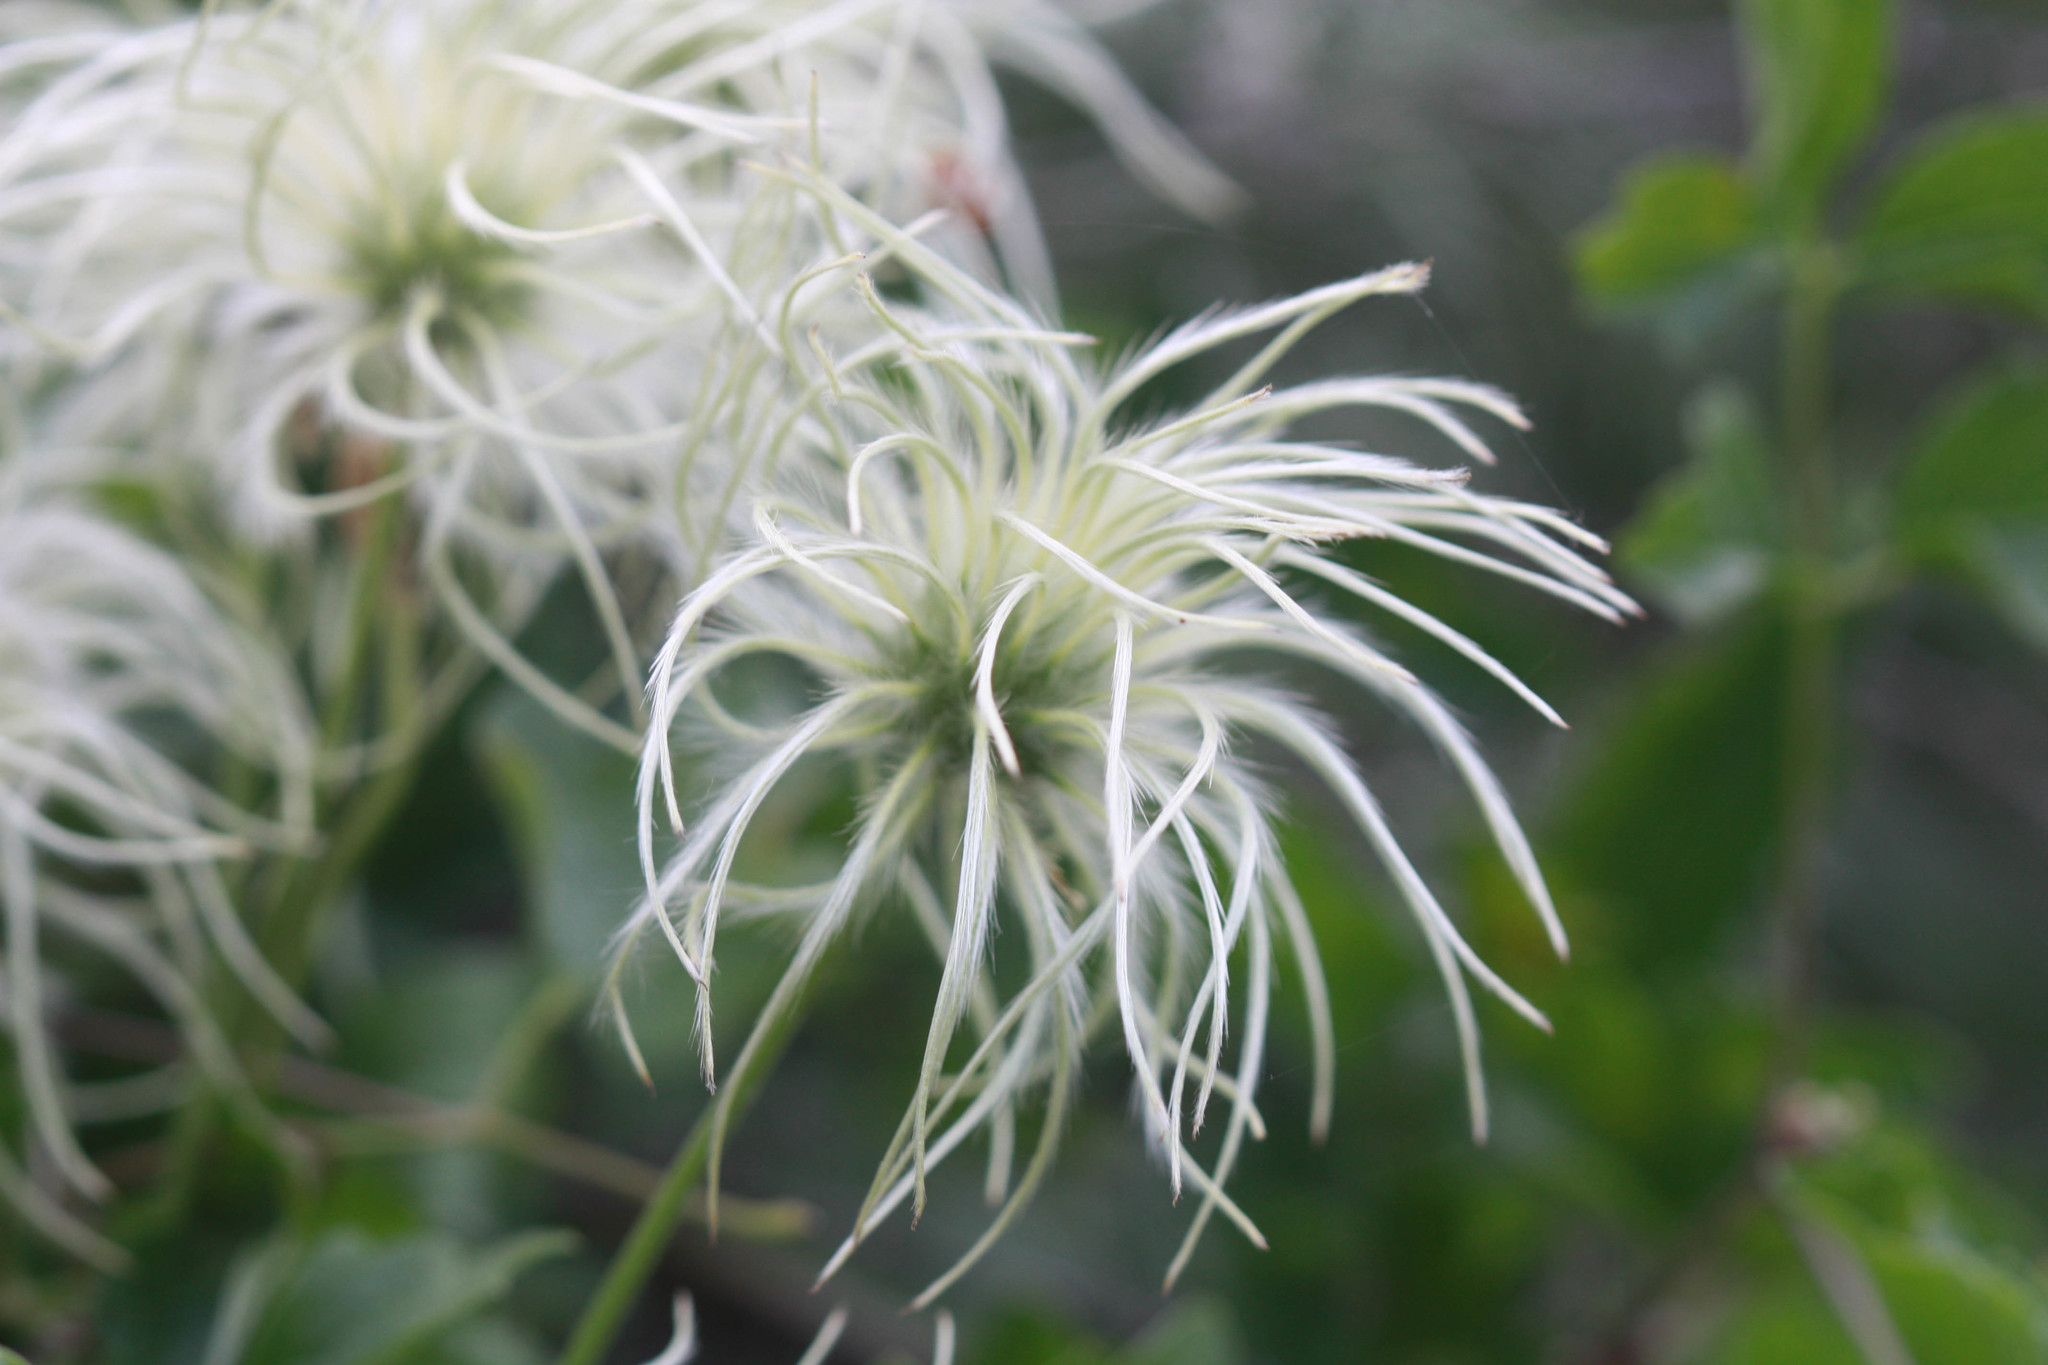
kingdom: Plantae
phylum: Tracheophyta
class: Magnoliopsida
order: Ranunculales
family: Ranunculaceae
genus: Clematis
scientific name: Clematis lasiantha
